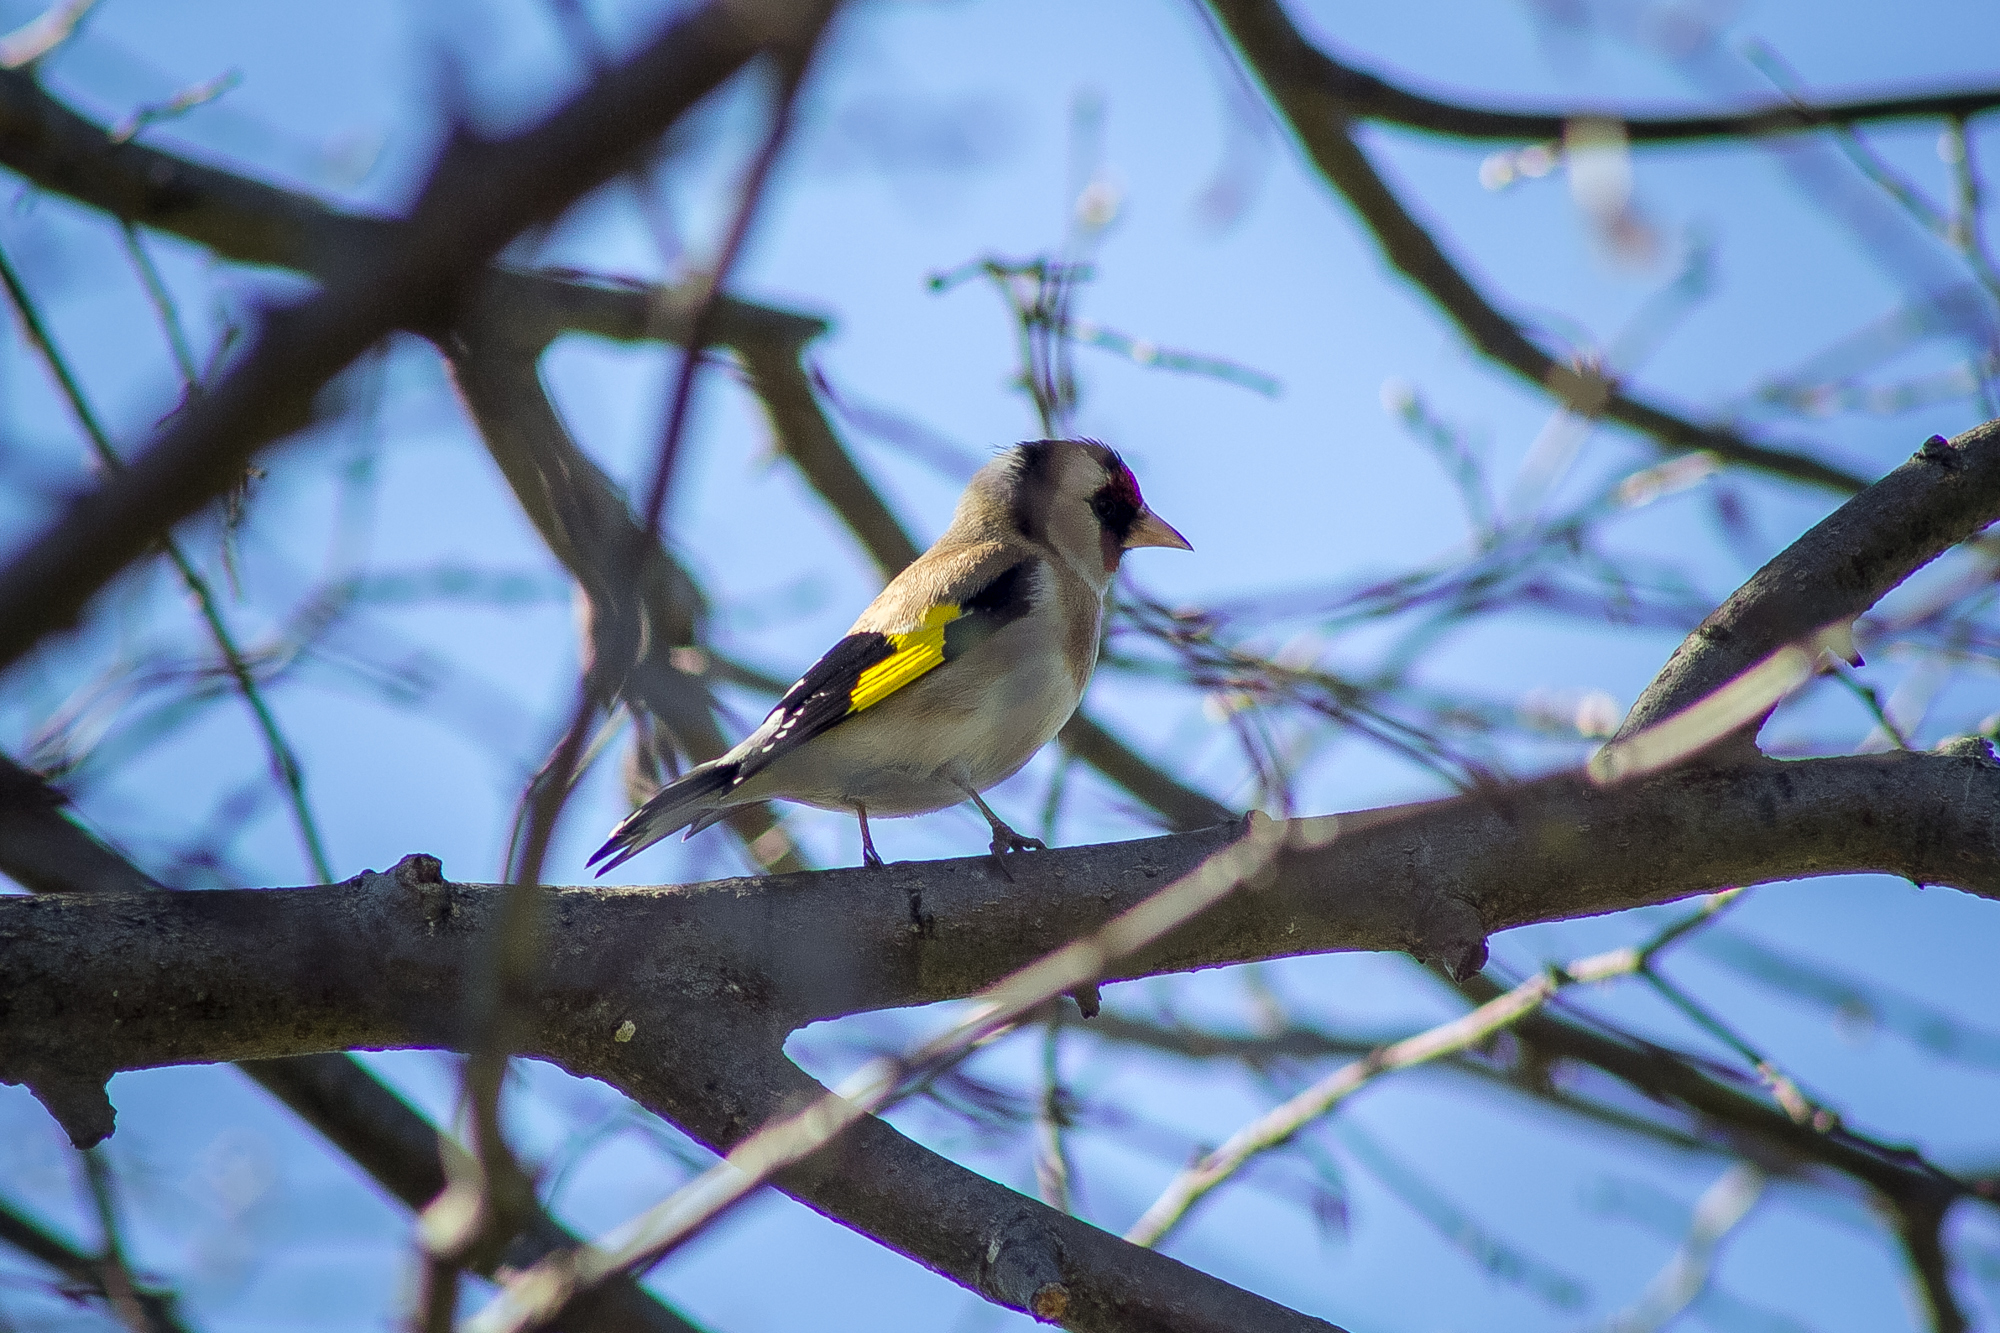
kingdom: Animalia
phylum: Chordata
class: Aves
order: Passeriformes
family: Fringillidae
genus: Carduelis
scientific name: Carduelis carduelis
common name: European goldfinch
